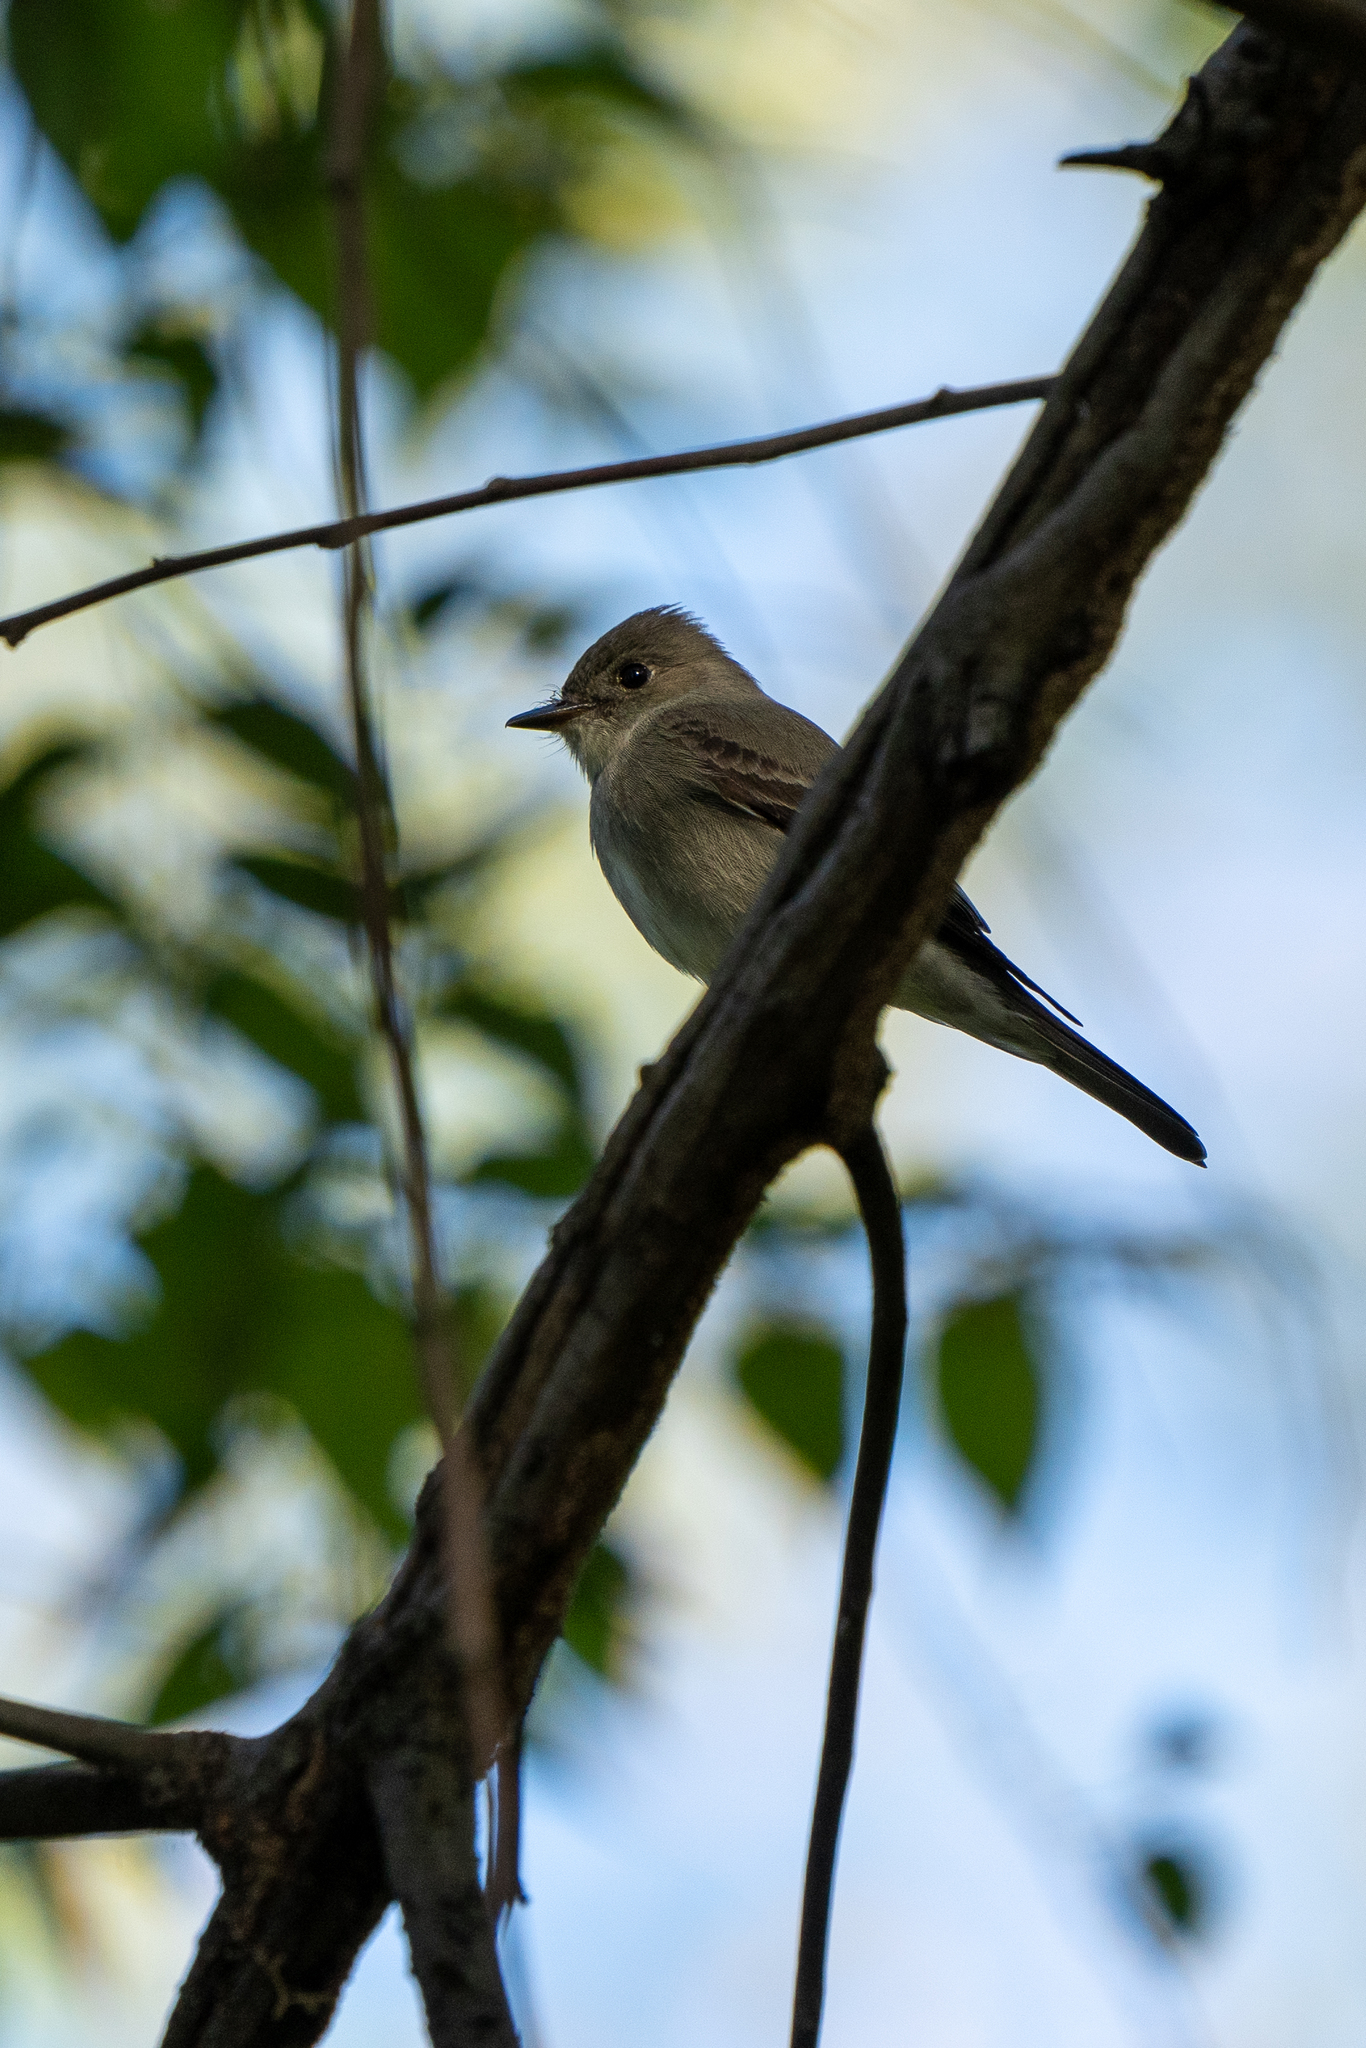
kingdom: Animalia
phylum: Chordata
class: Aves
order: Passeriformes
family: Tyrannidae
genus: Contopus
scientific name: Contopus sordidulus
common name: Western wood-pewee
